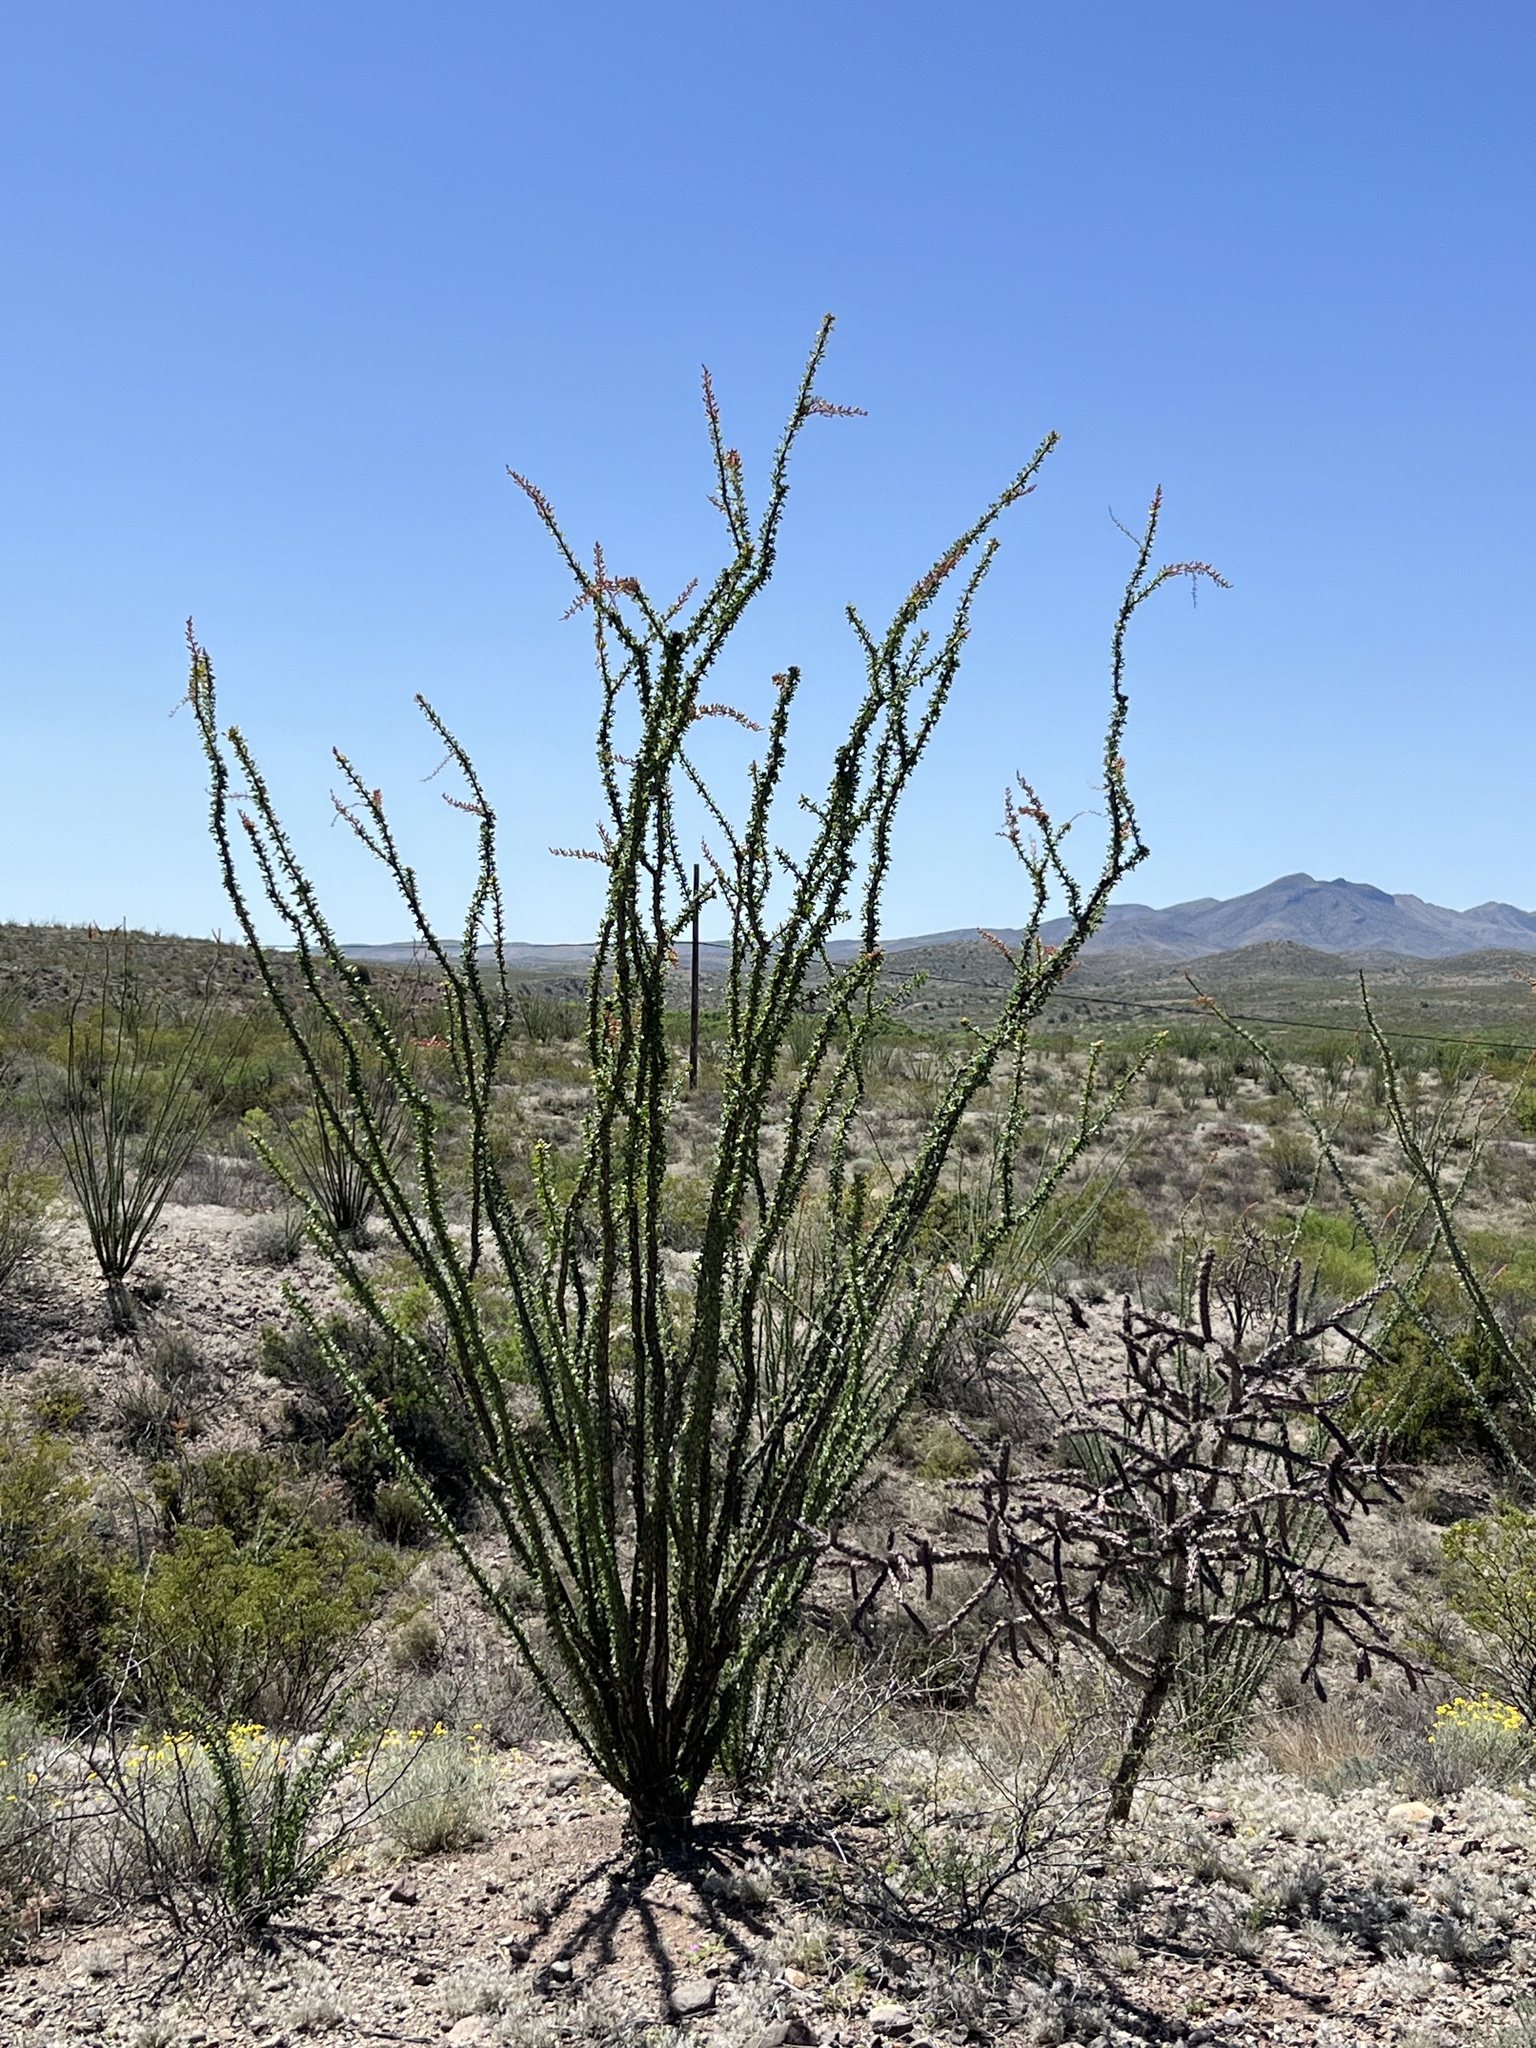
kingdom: Plantae
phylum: Tracheophyta
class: Magnoliopsida
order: Ericales
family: Fouquieriaceae
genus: Fouquieria
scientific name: Fouquieria splendens
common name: Vine-cactus
